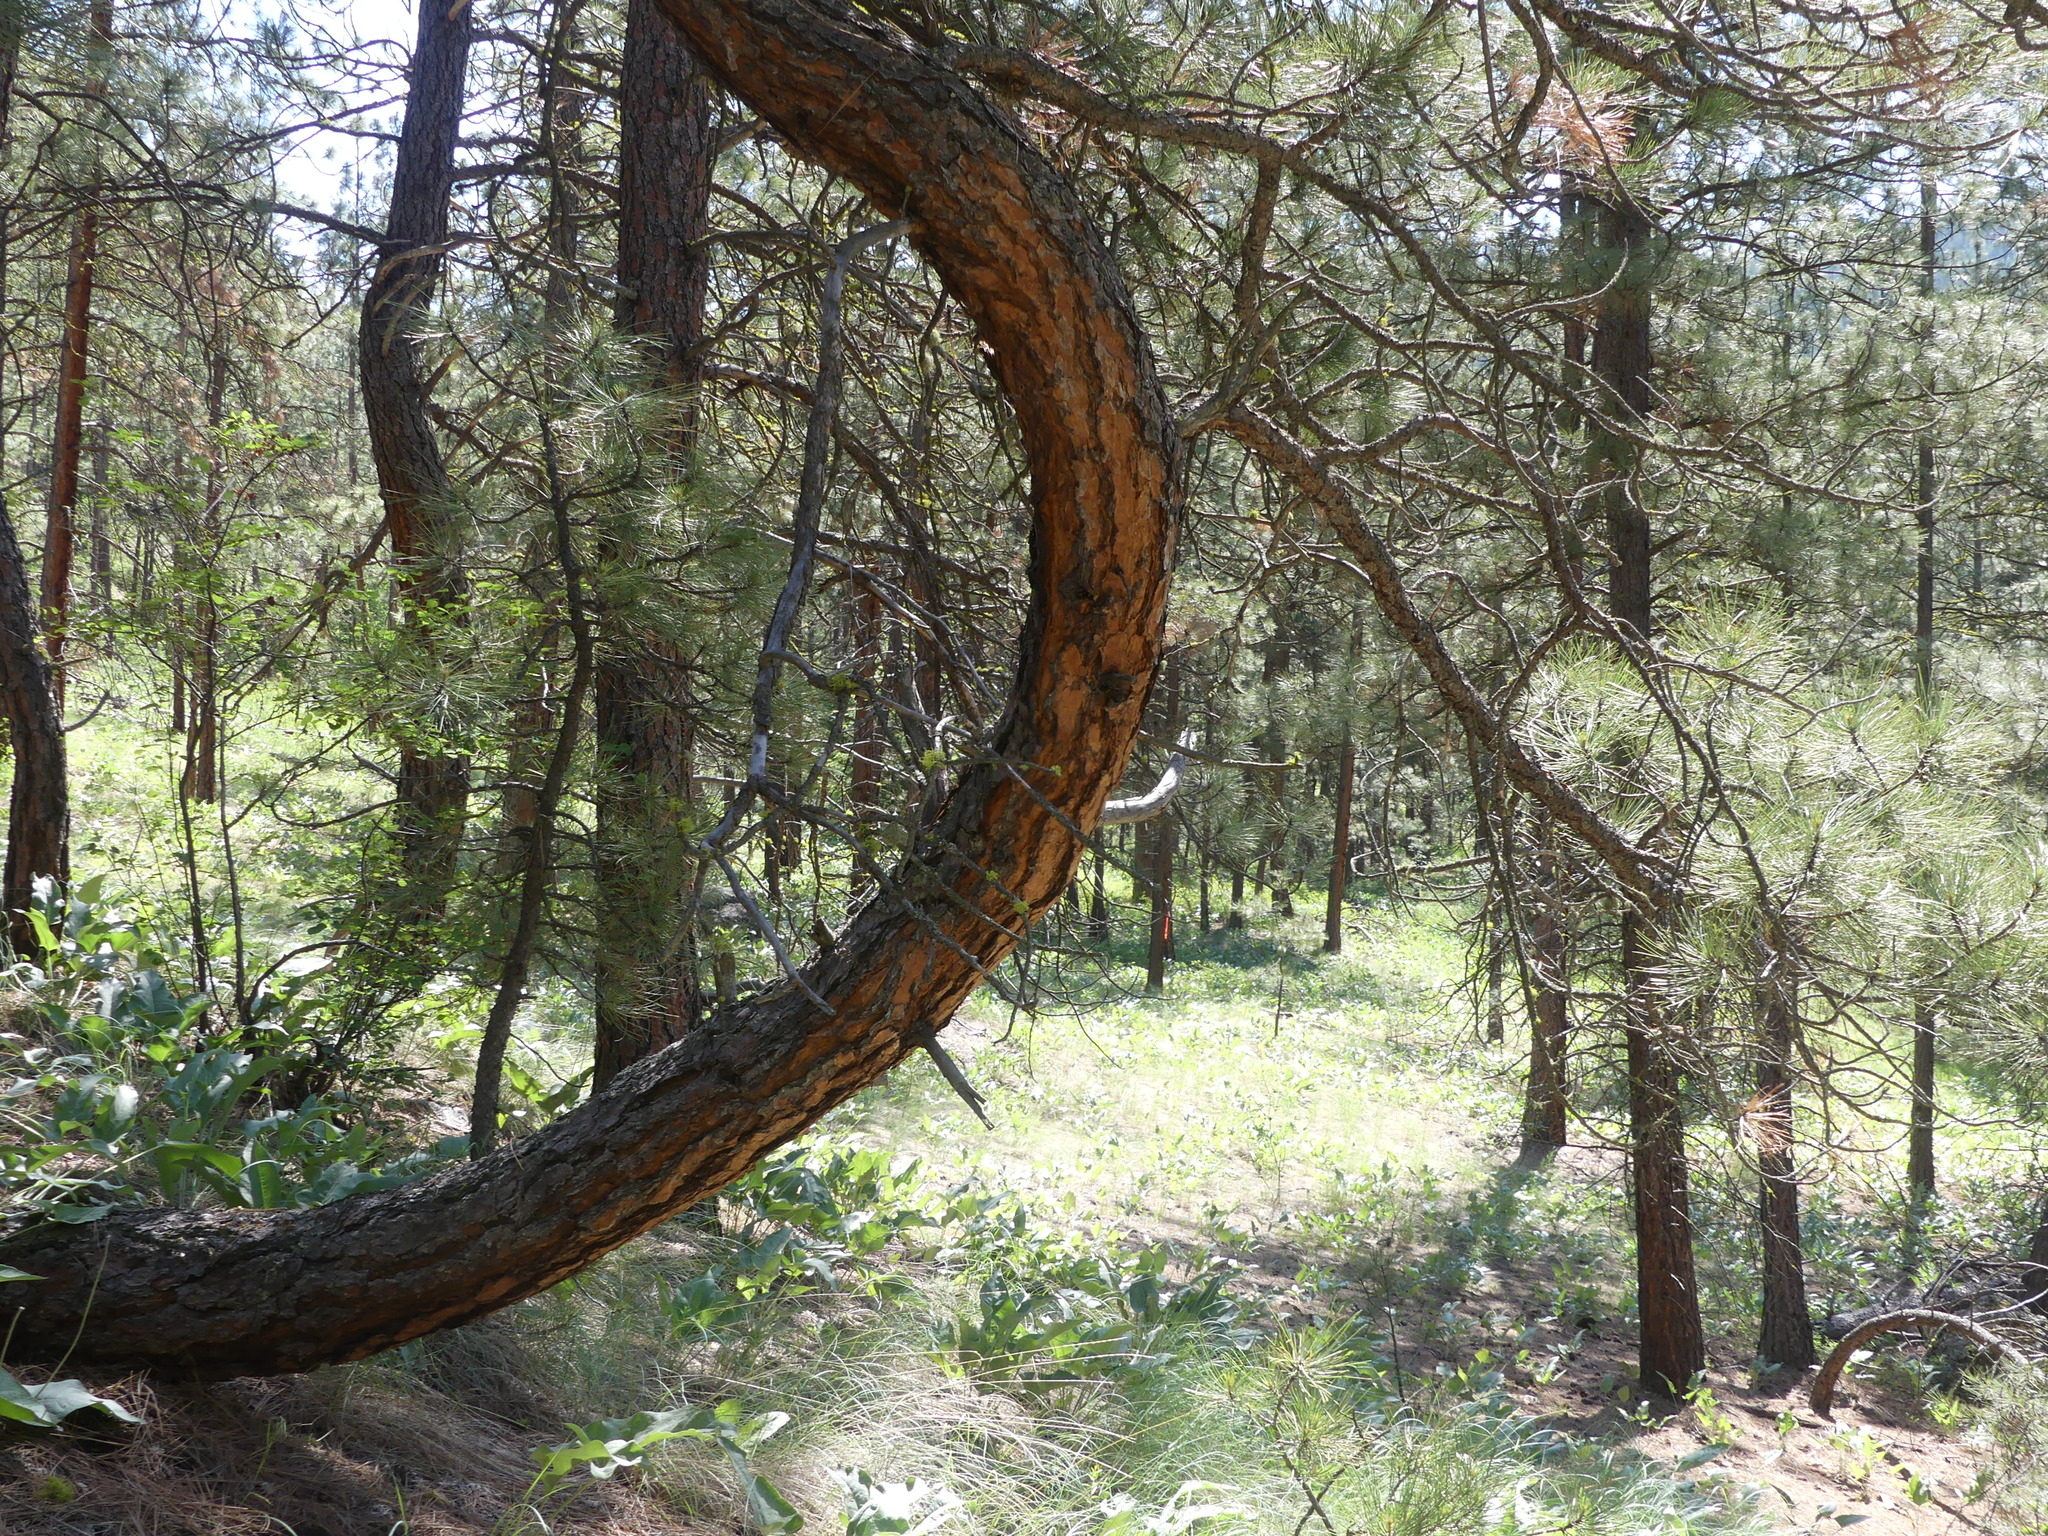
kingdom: Plantae
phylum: Tracheophyta
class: Pinopsida
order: Pinales
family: Pinaceae
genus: Pinus
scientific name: Pinus ponderosa
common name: Western yellow-pine
